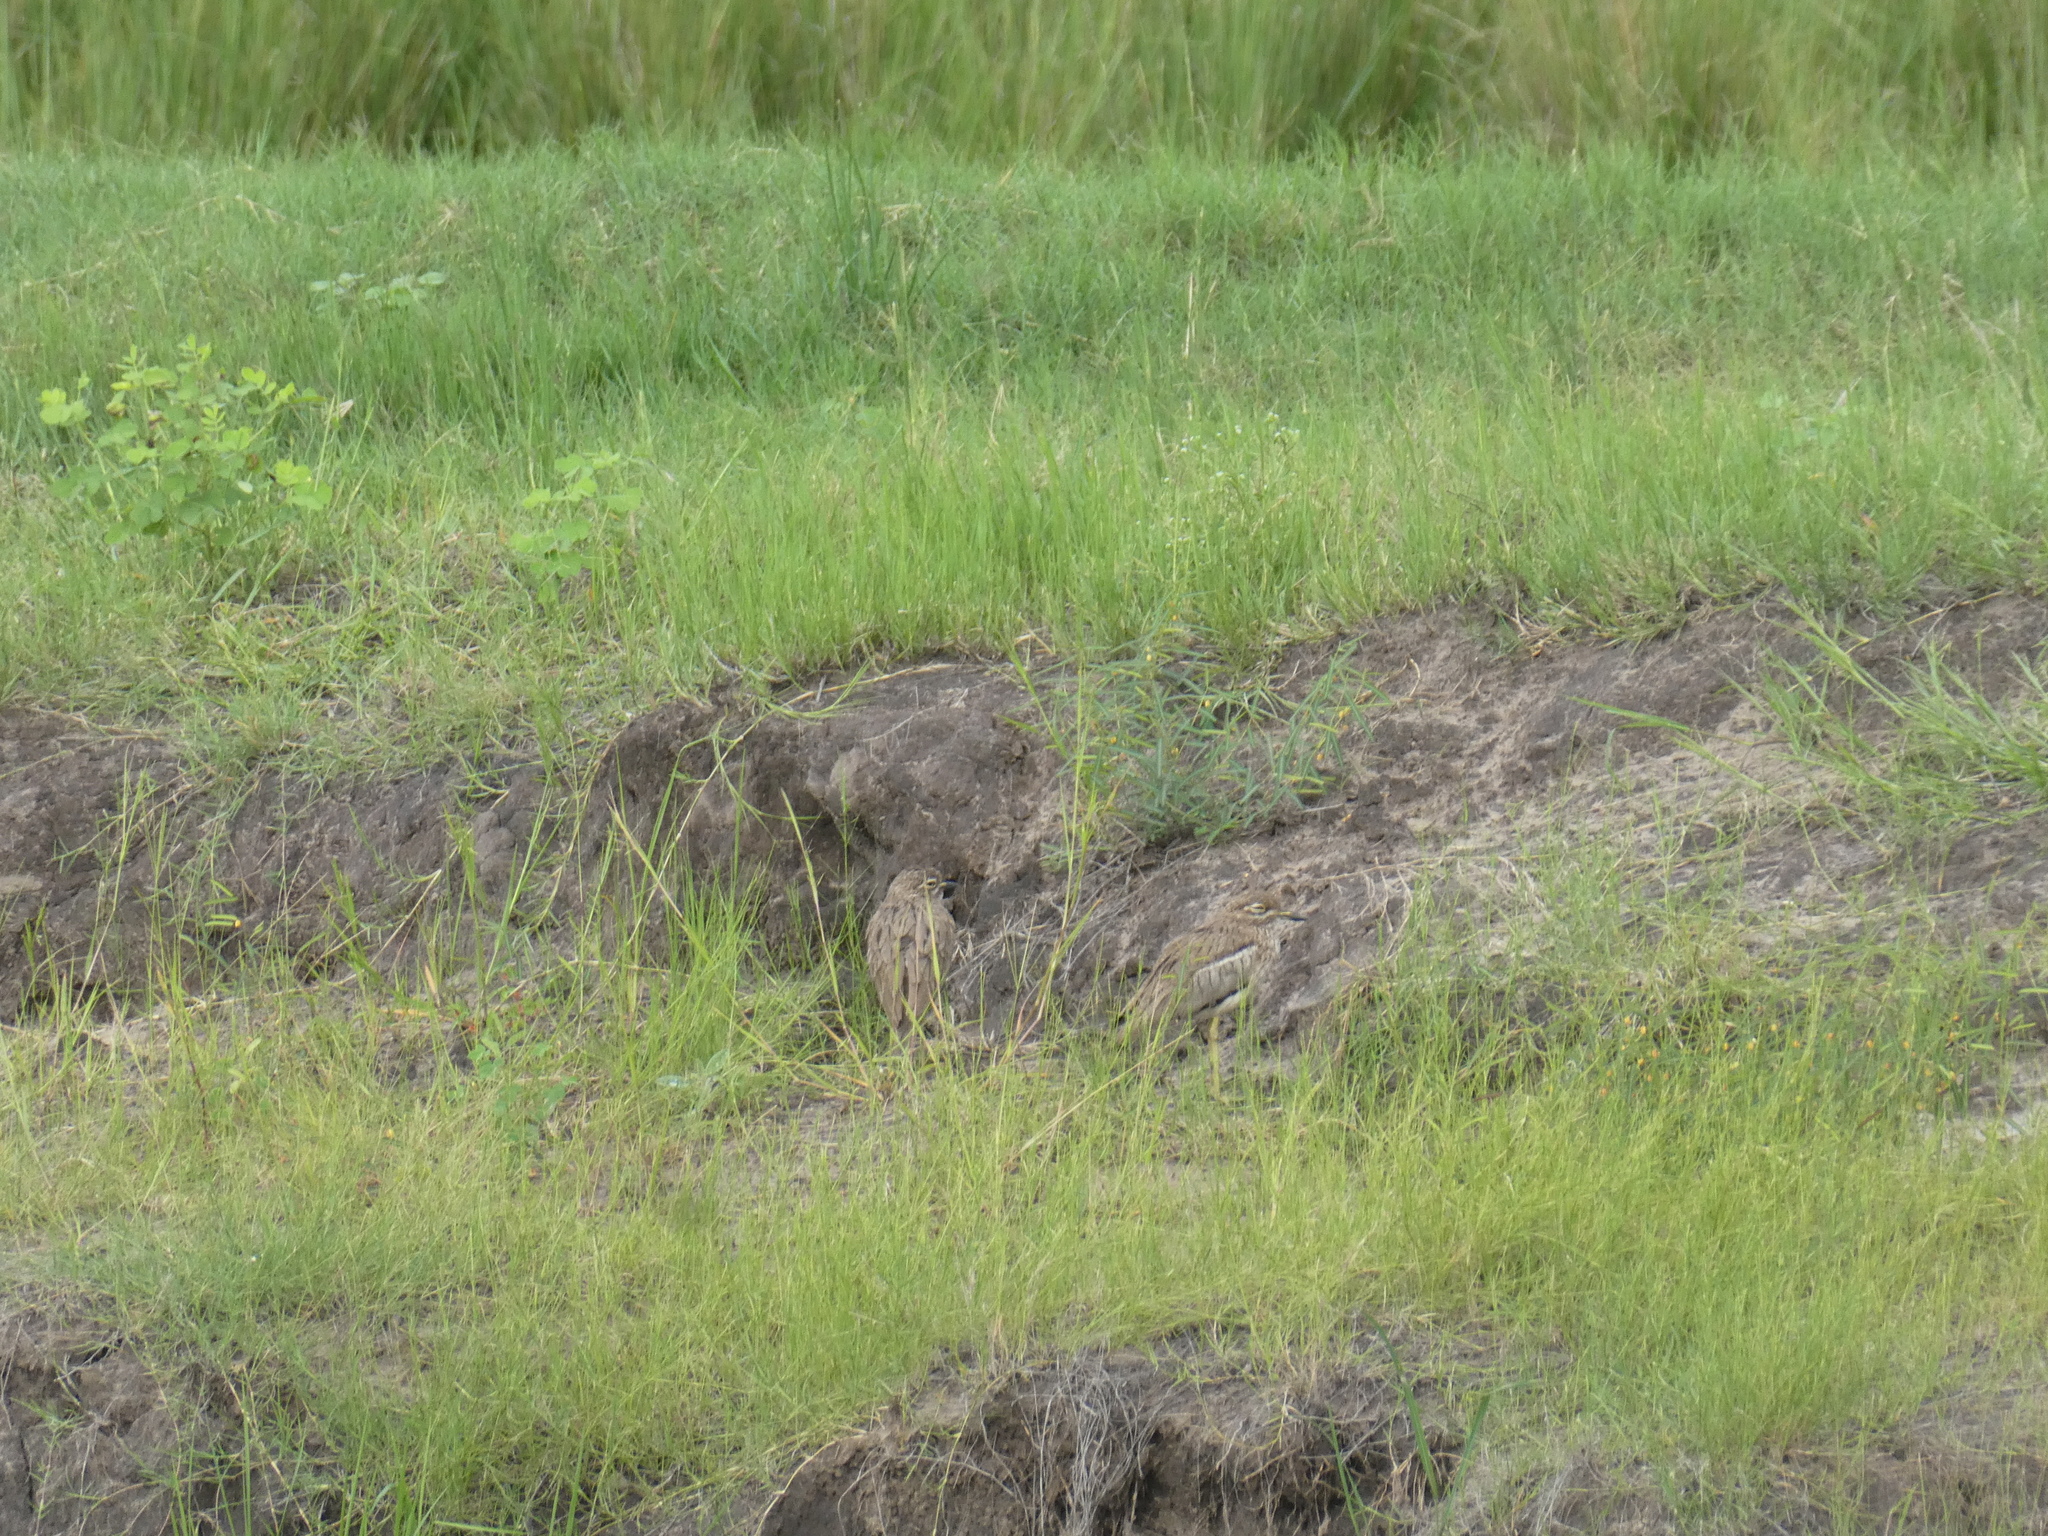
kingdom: Animalia
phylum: Chordata
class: Aves
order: Charadriiformes
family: Burhinidae
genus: Burhinus
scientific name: Burhinus vermiculatus
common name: Water thick-knee
